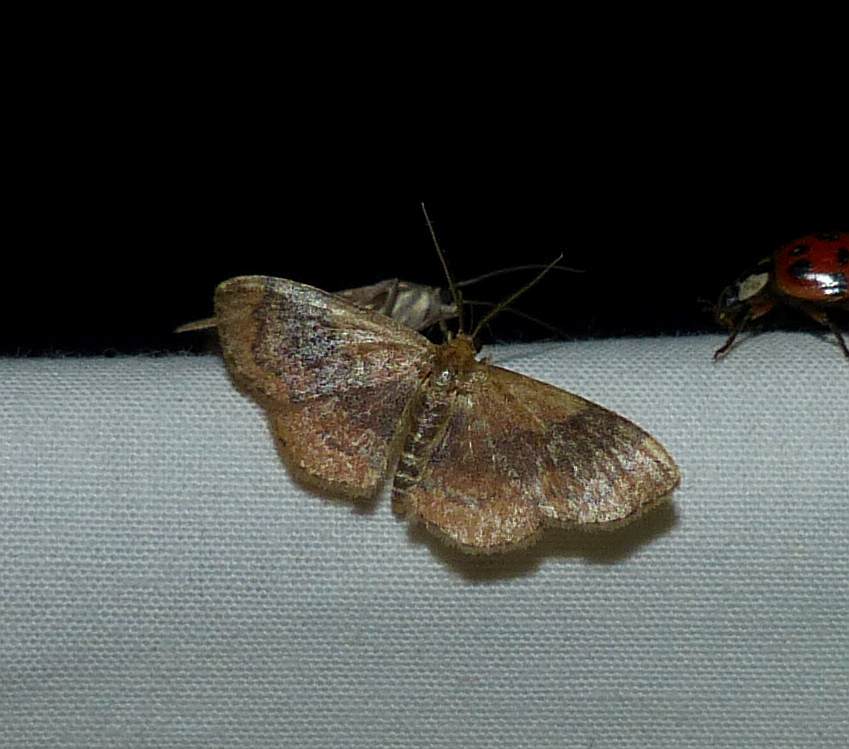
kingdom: Animalia
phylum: Arthropoda
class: Insecta
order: Lepidoptera
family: Geometridae
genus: Leptostales
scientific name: Leptostales ferruminaria
